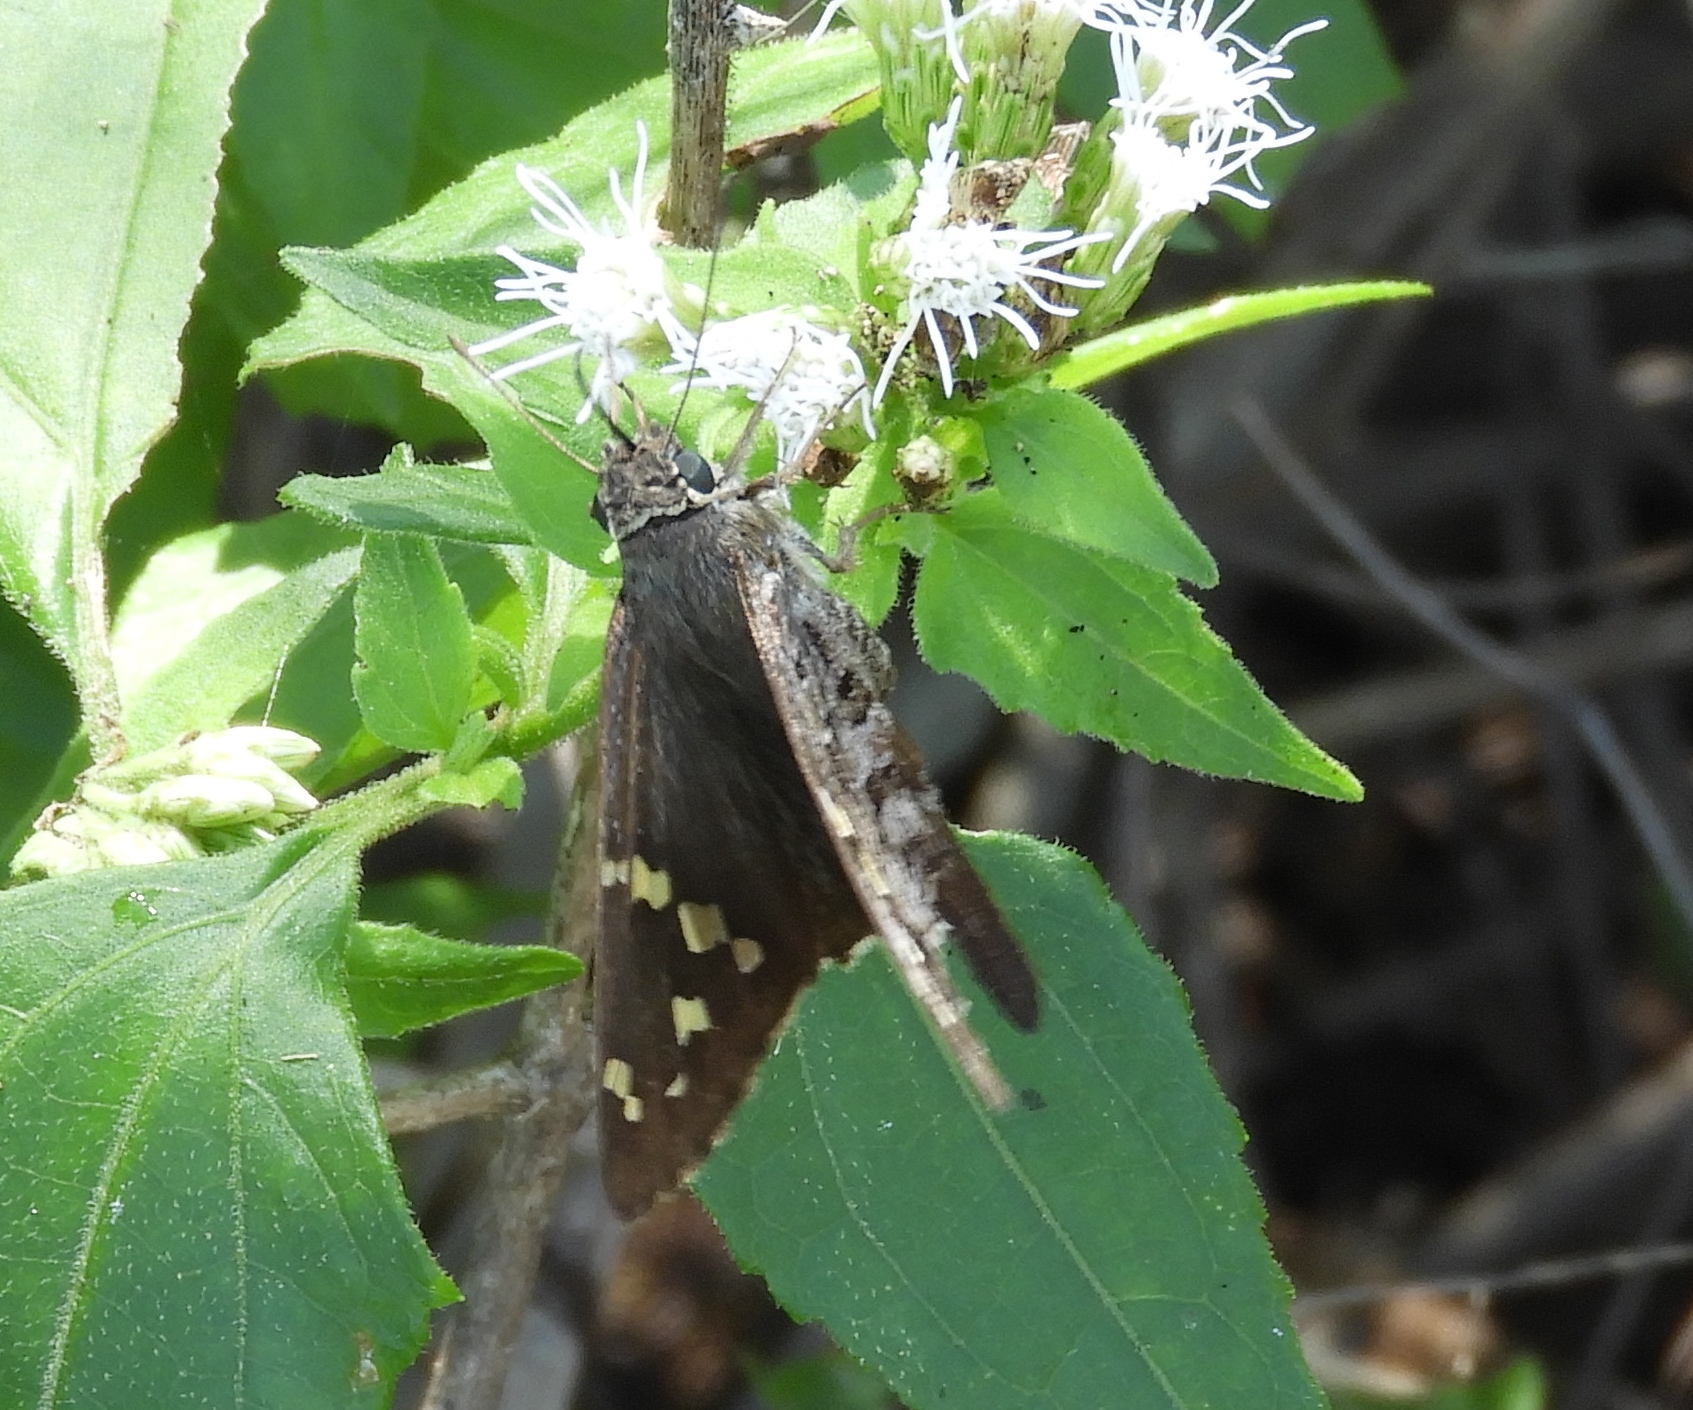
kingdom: Animalia
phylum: Arthropoda
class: Insecta
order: Lepidoptera
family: Hesperiidae
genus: Thorybes
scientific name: Thorybes
